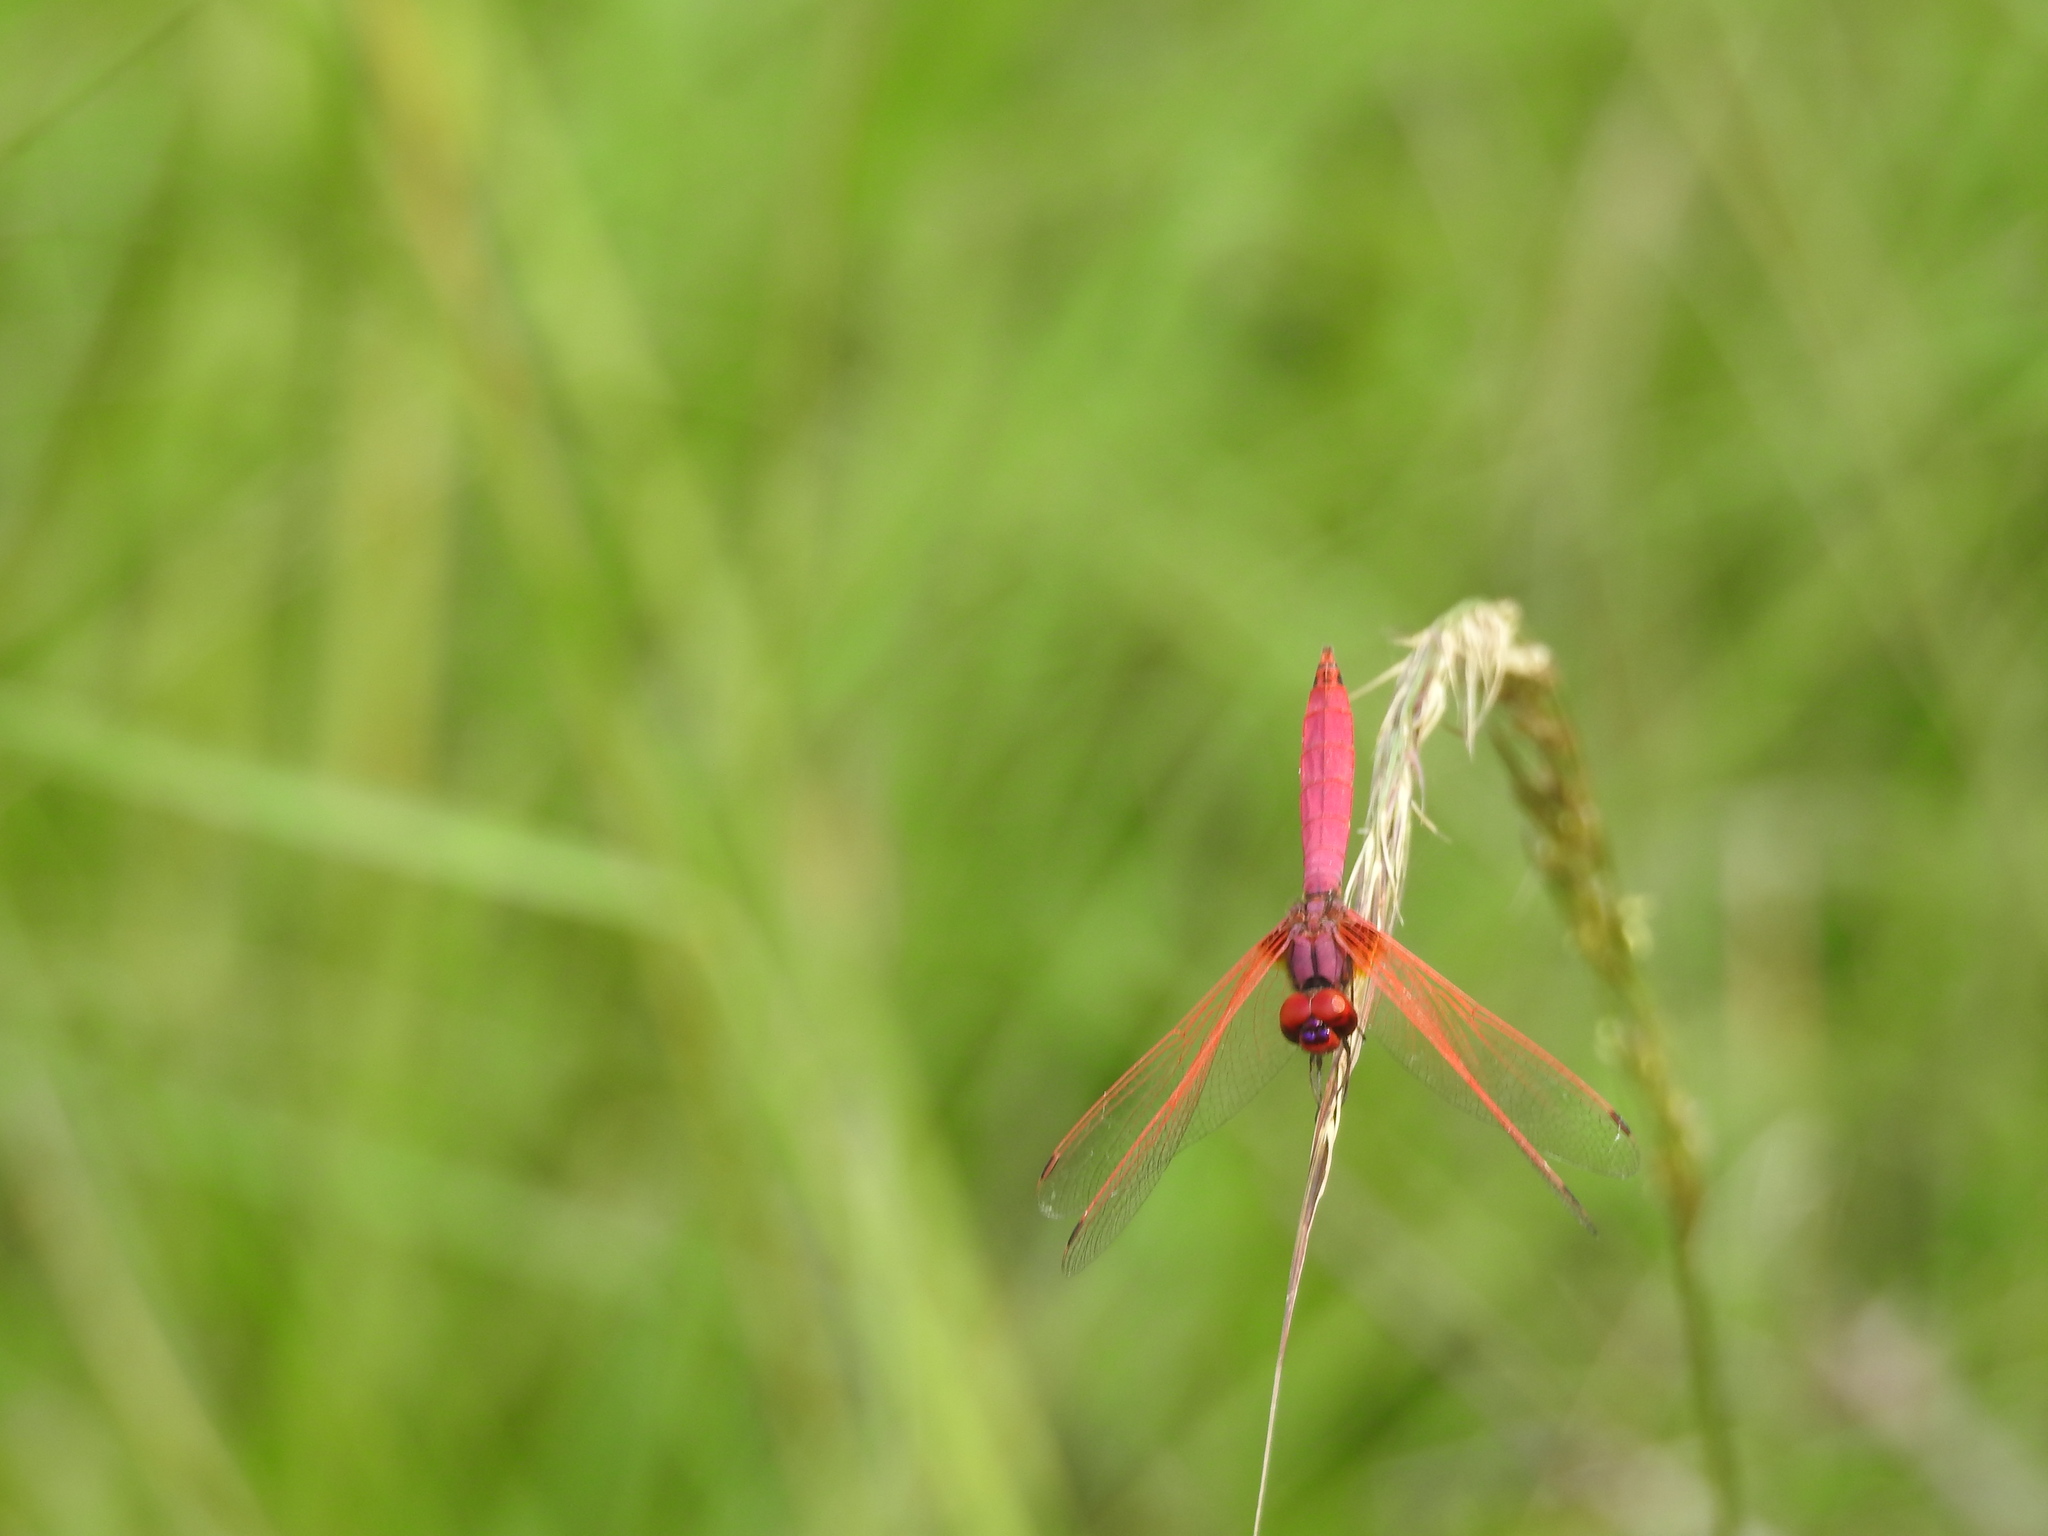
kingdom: Animalia
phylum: Arthropoda
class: Insecta
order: Odonata
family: Libellulidae
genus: Trithemis
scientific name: Trithemis aurora
